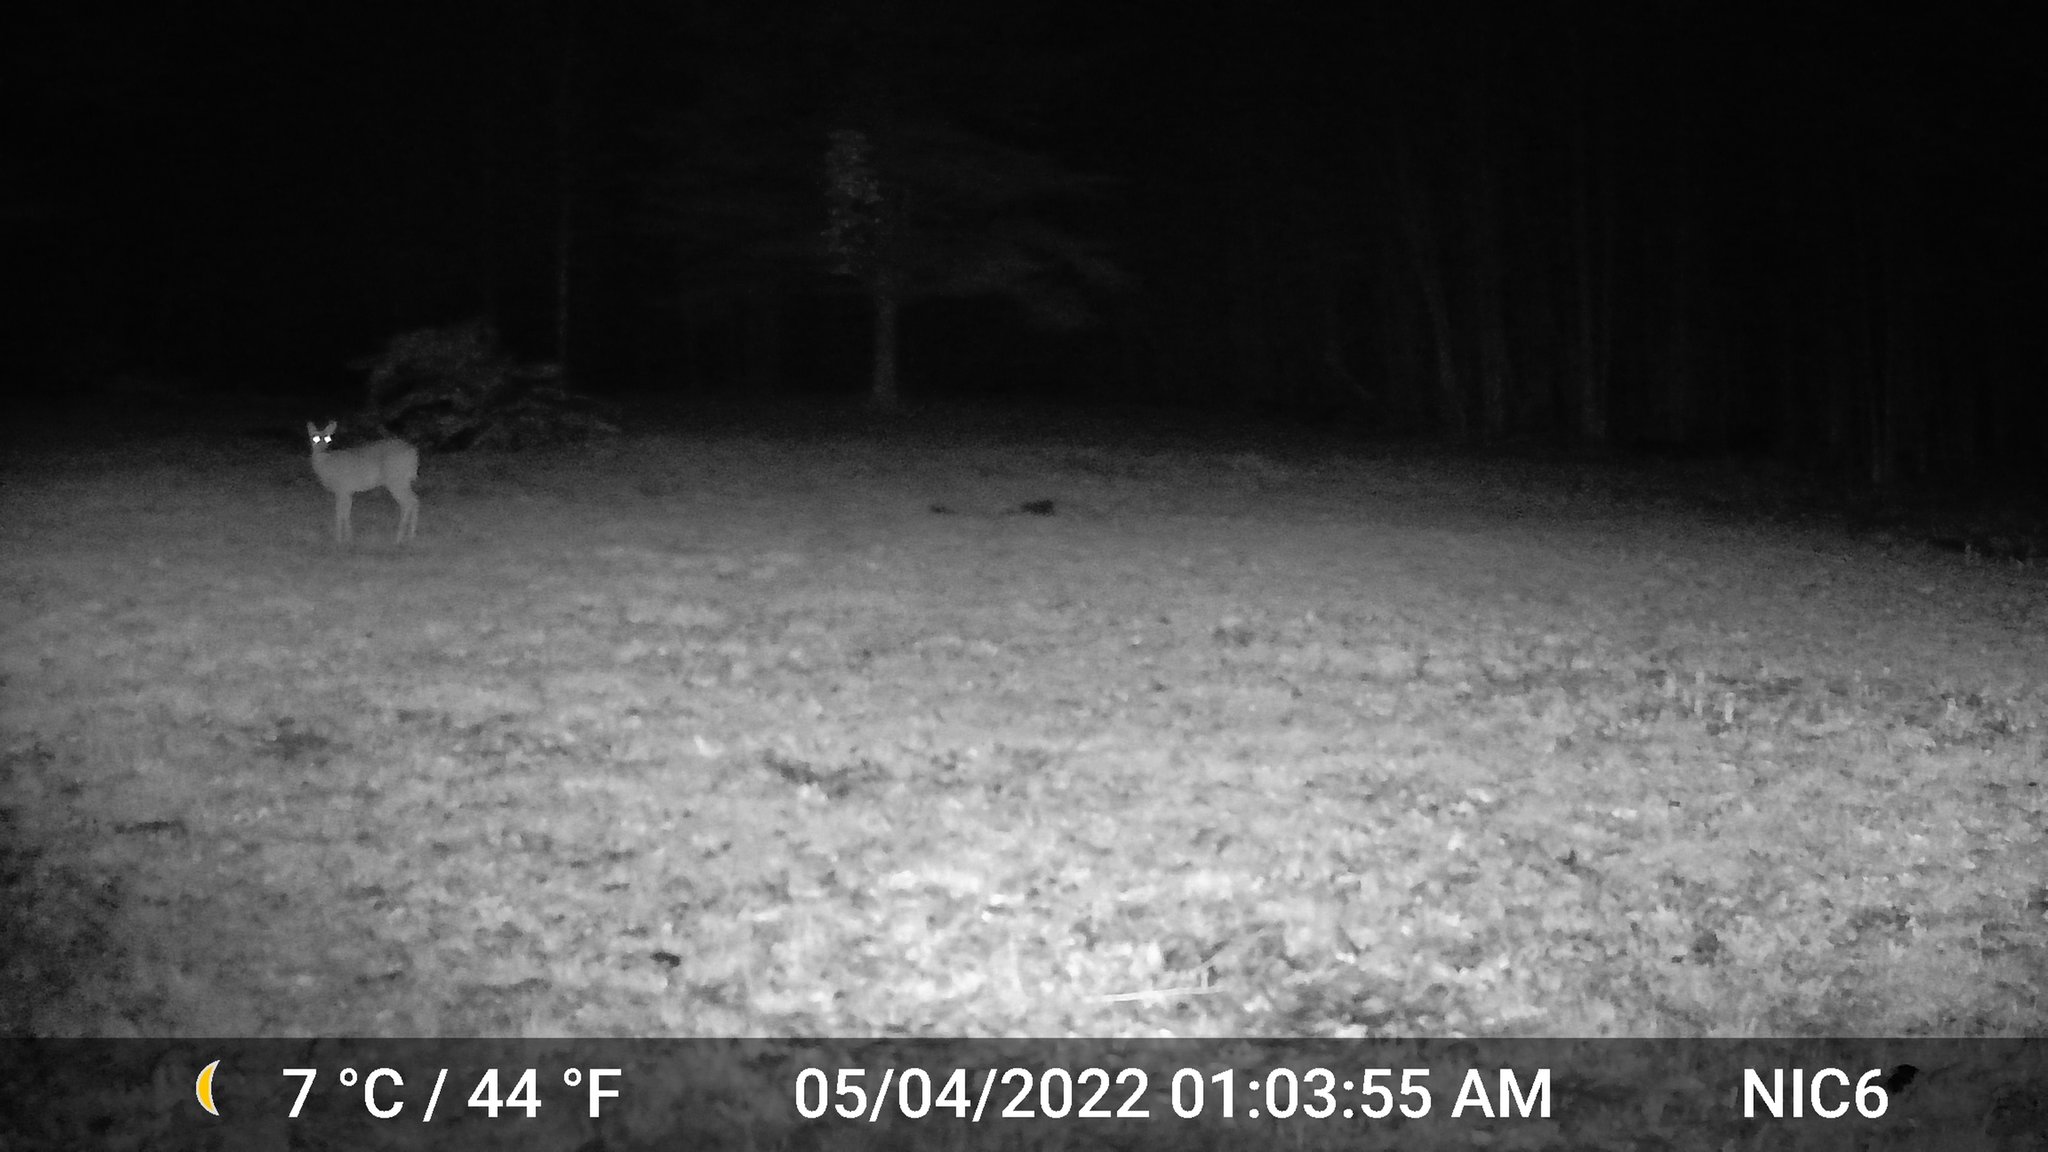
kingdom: Animalia
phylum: Chordata
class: Mammalia
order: Artiodactyla
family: Cervidae
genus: Odocoileus
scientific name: Odocoileus virginianus
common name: White-tailed deer
